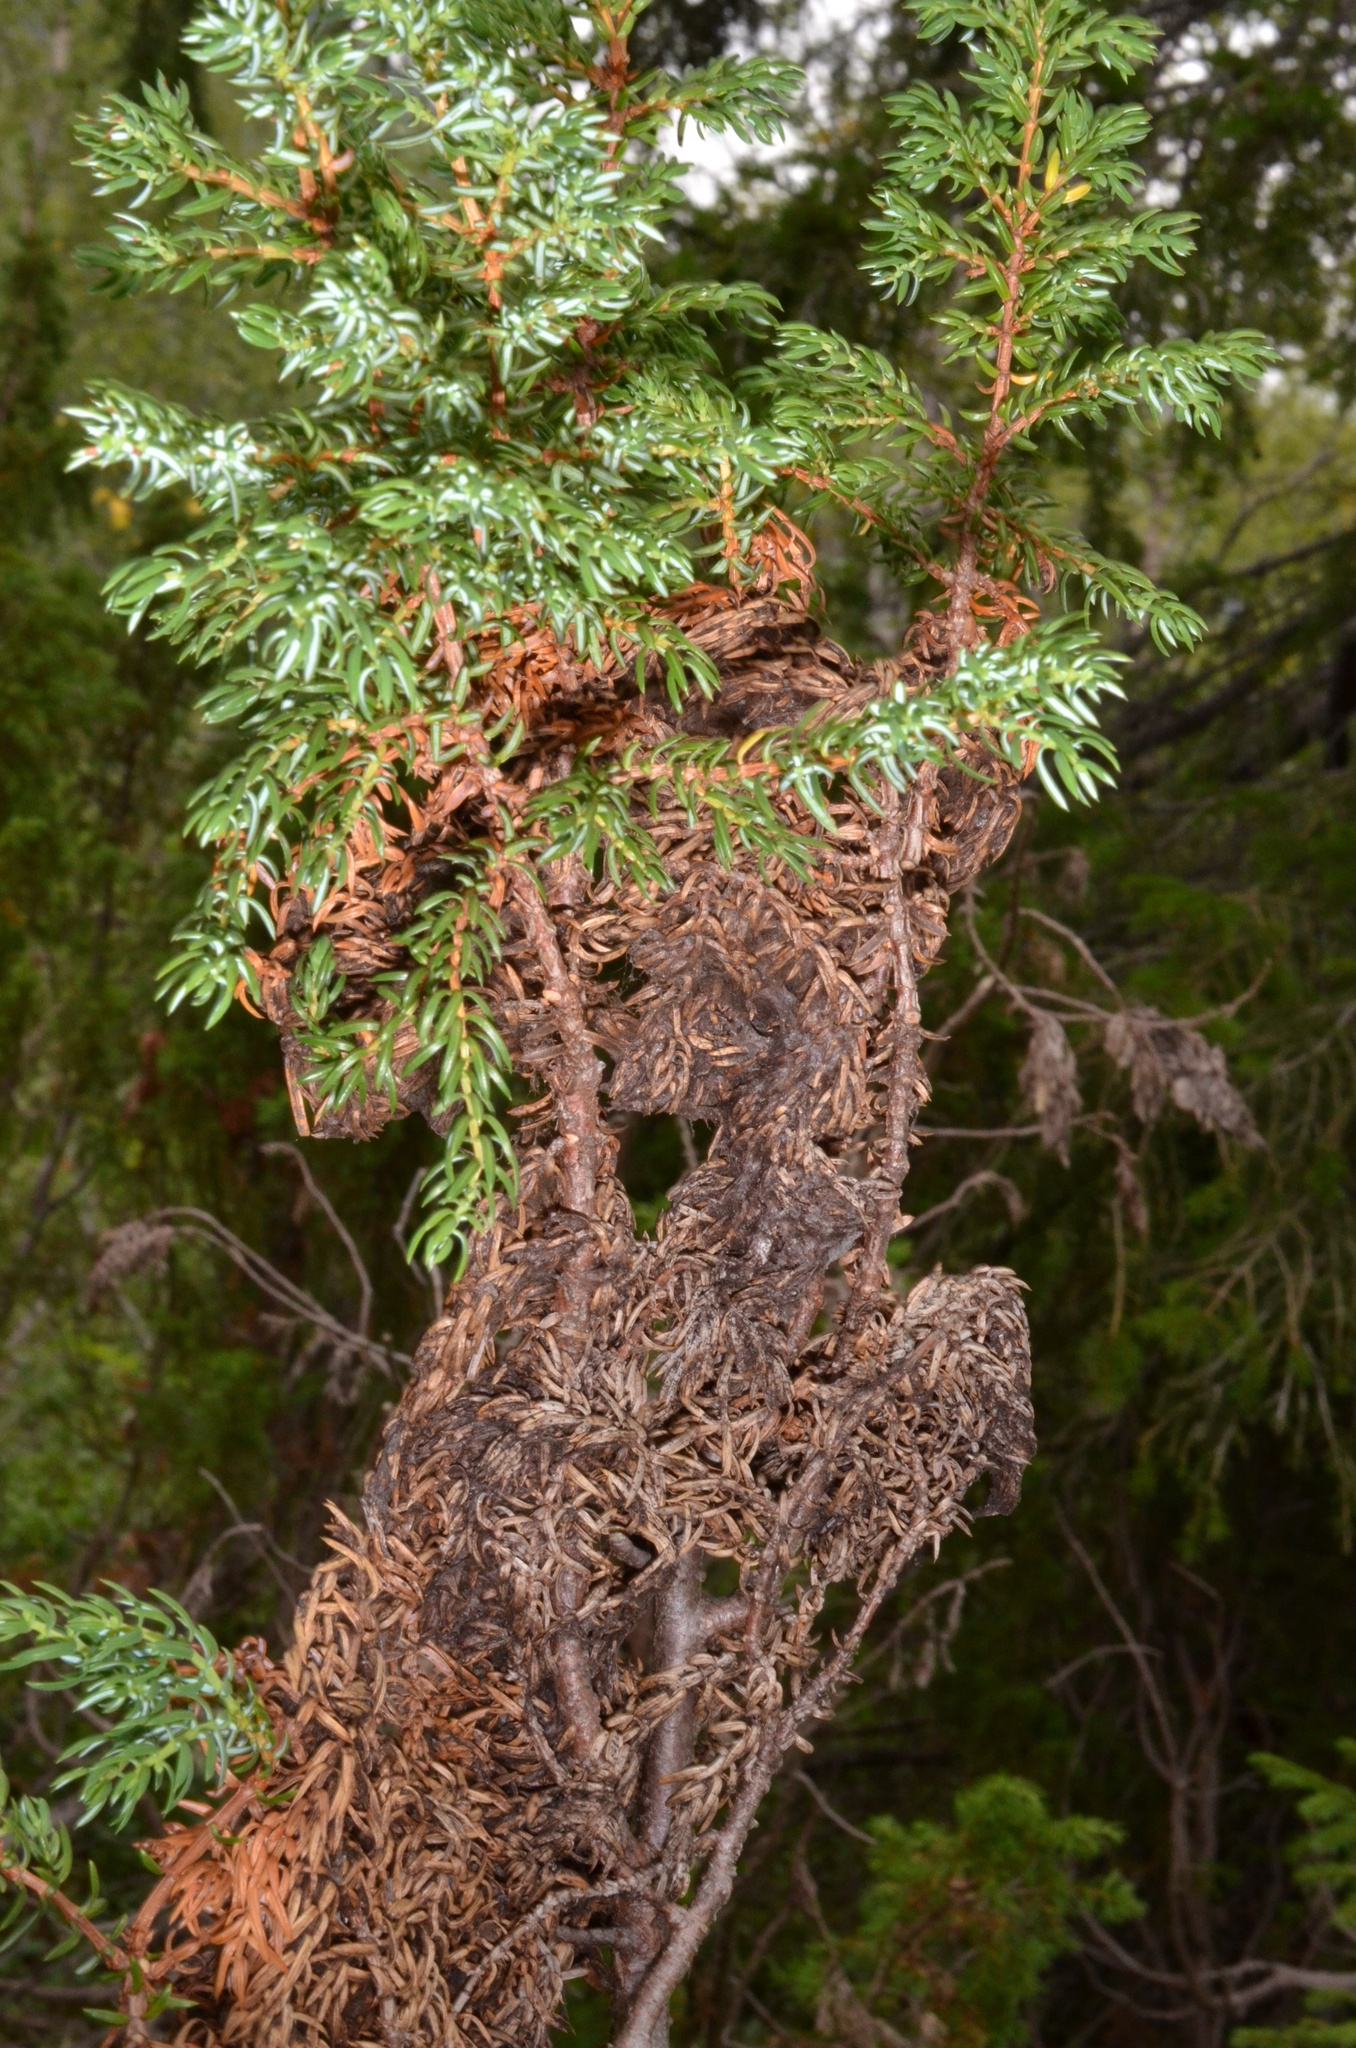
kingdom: Fungi
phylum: Ascomycota
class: Dothideomycetes
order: Pleosporales
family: Melanommataceae
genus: Herpotrichia
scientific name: Herpotrichia pinetorum
